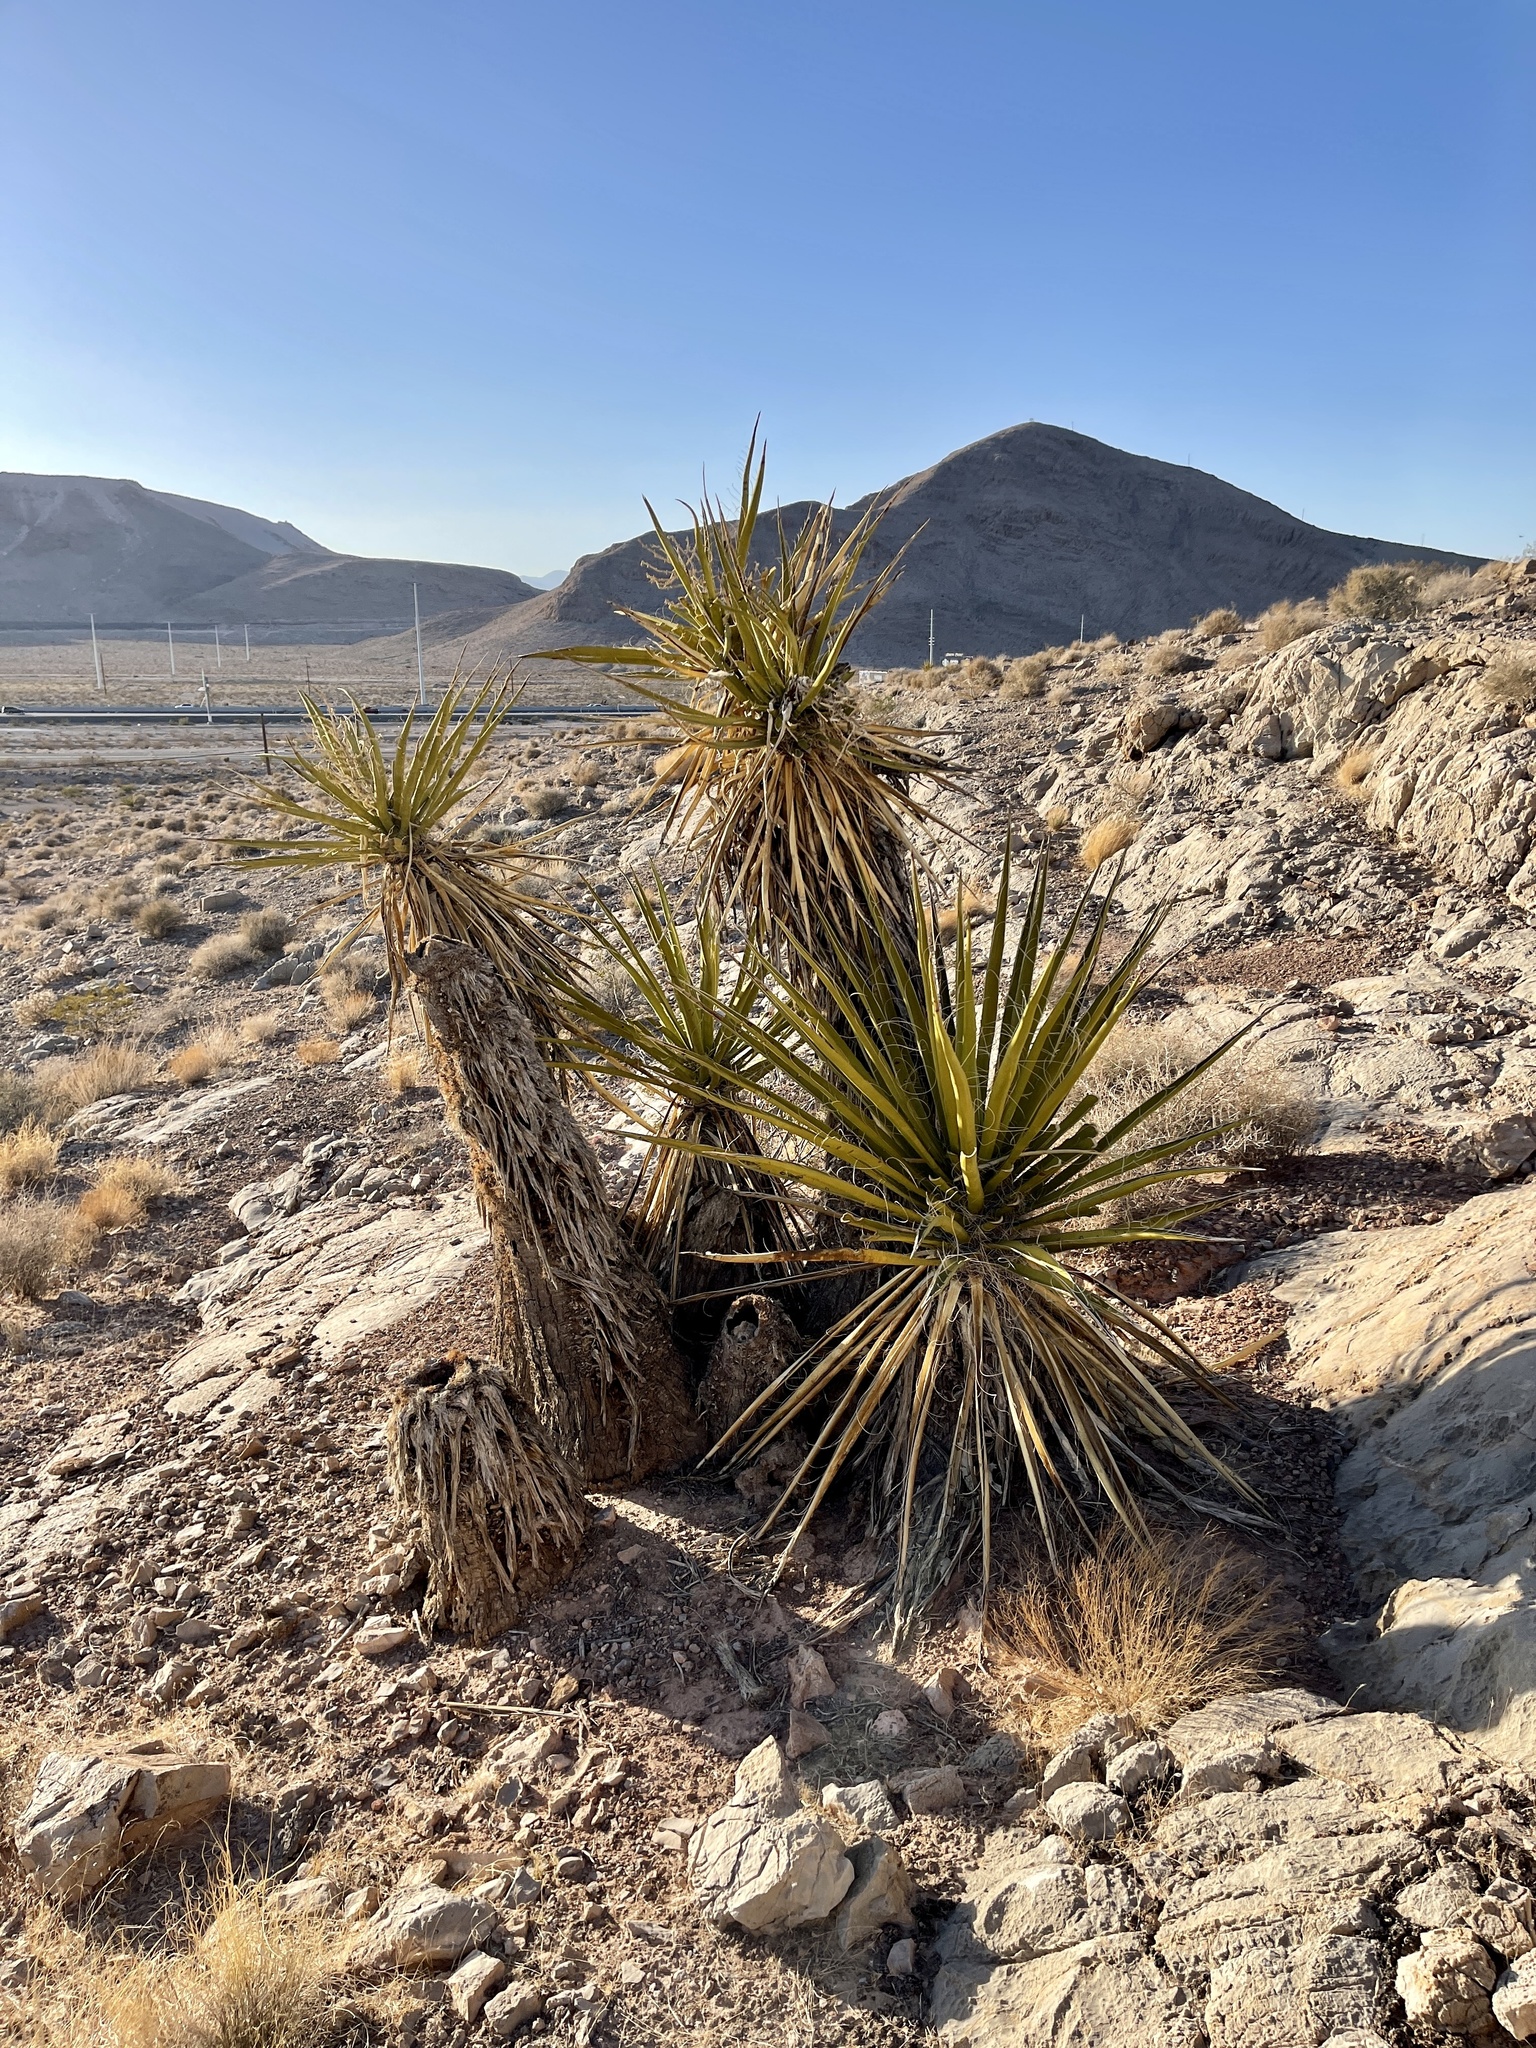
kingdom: Plantae
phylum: Tracheophyta
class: Liliopsida
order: Asparagales
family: Asparagaceae
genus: Yucca
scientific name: Yucca schidigera
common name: Mojave yucca
